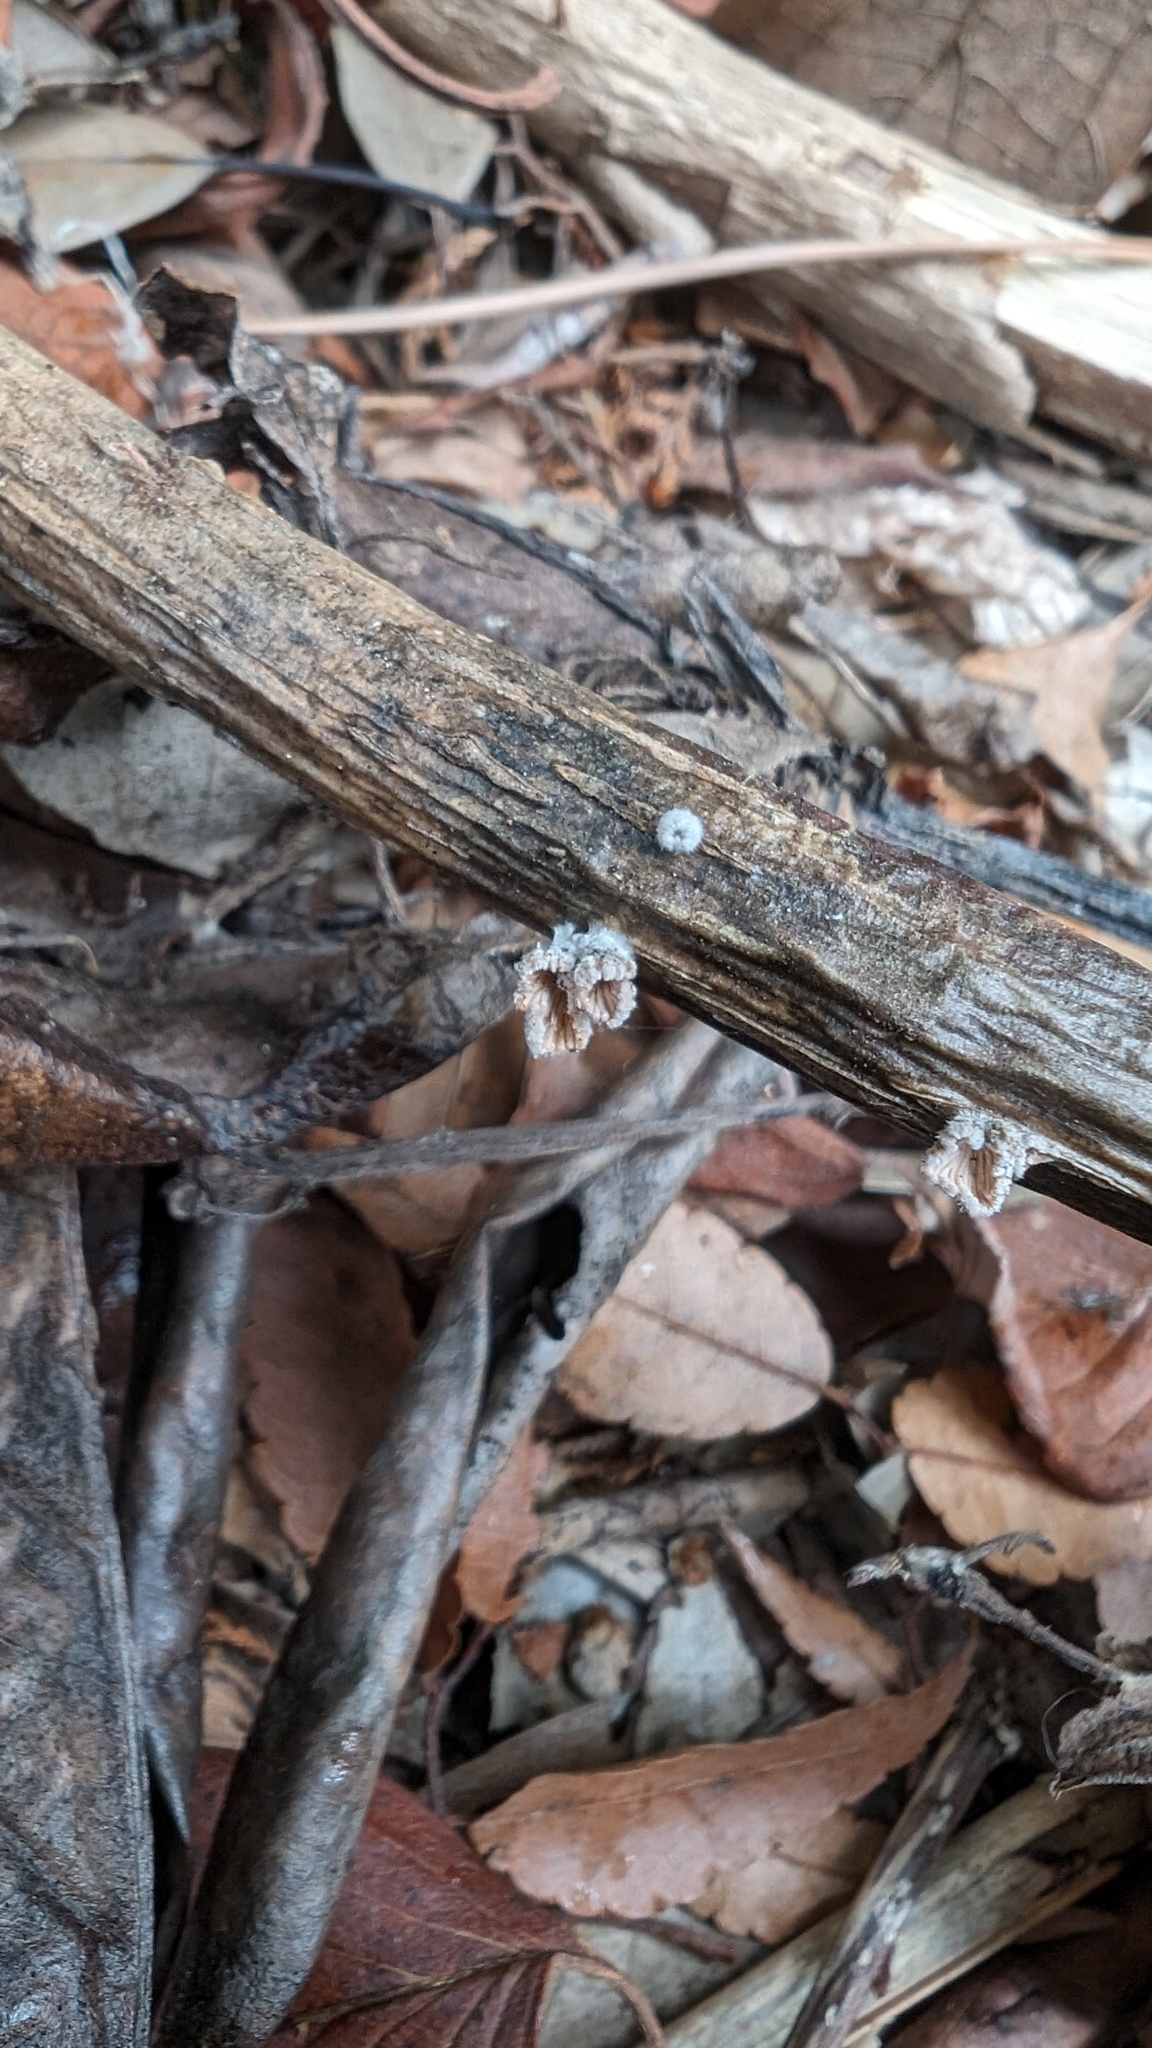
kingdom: Fungi
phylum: Basidiomycota
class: Agaricomycetes
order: Agaricales
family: Schizophyllaceae
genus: Schizophyllum
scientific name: Schizophyllum commune
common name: Common porecrust
